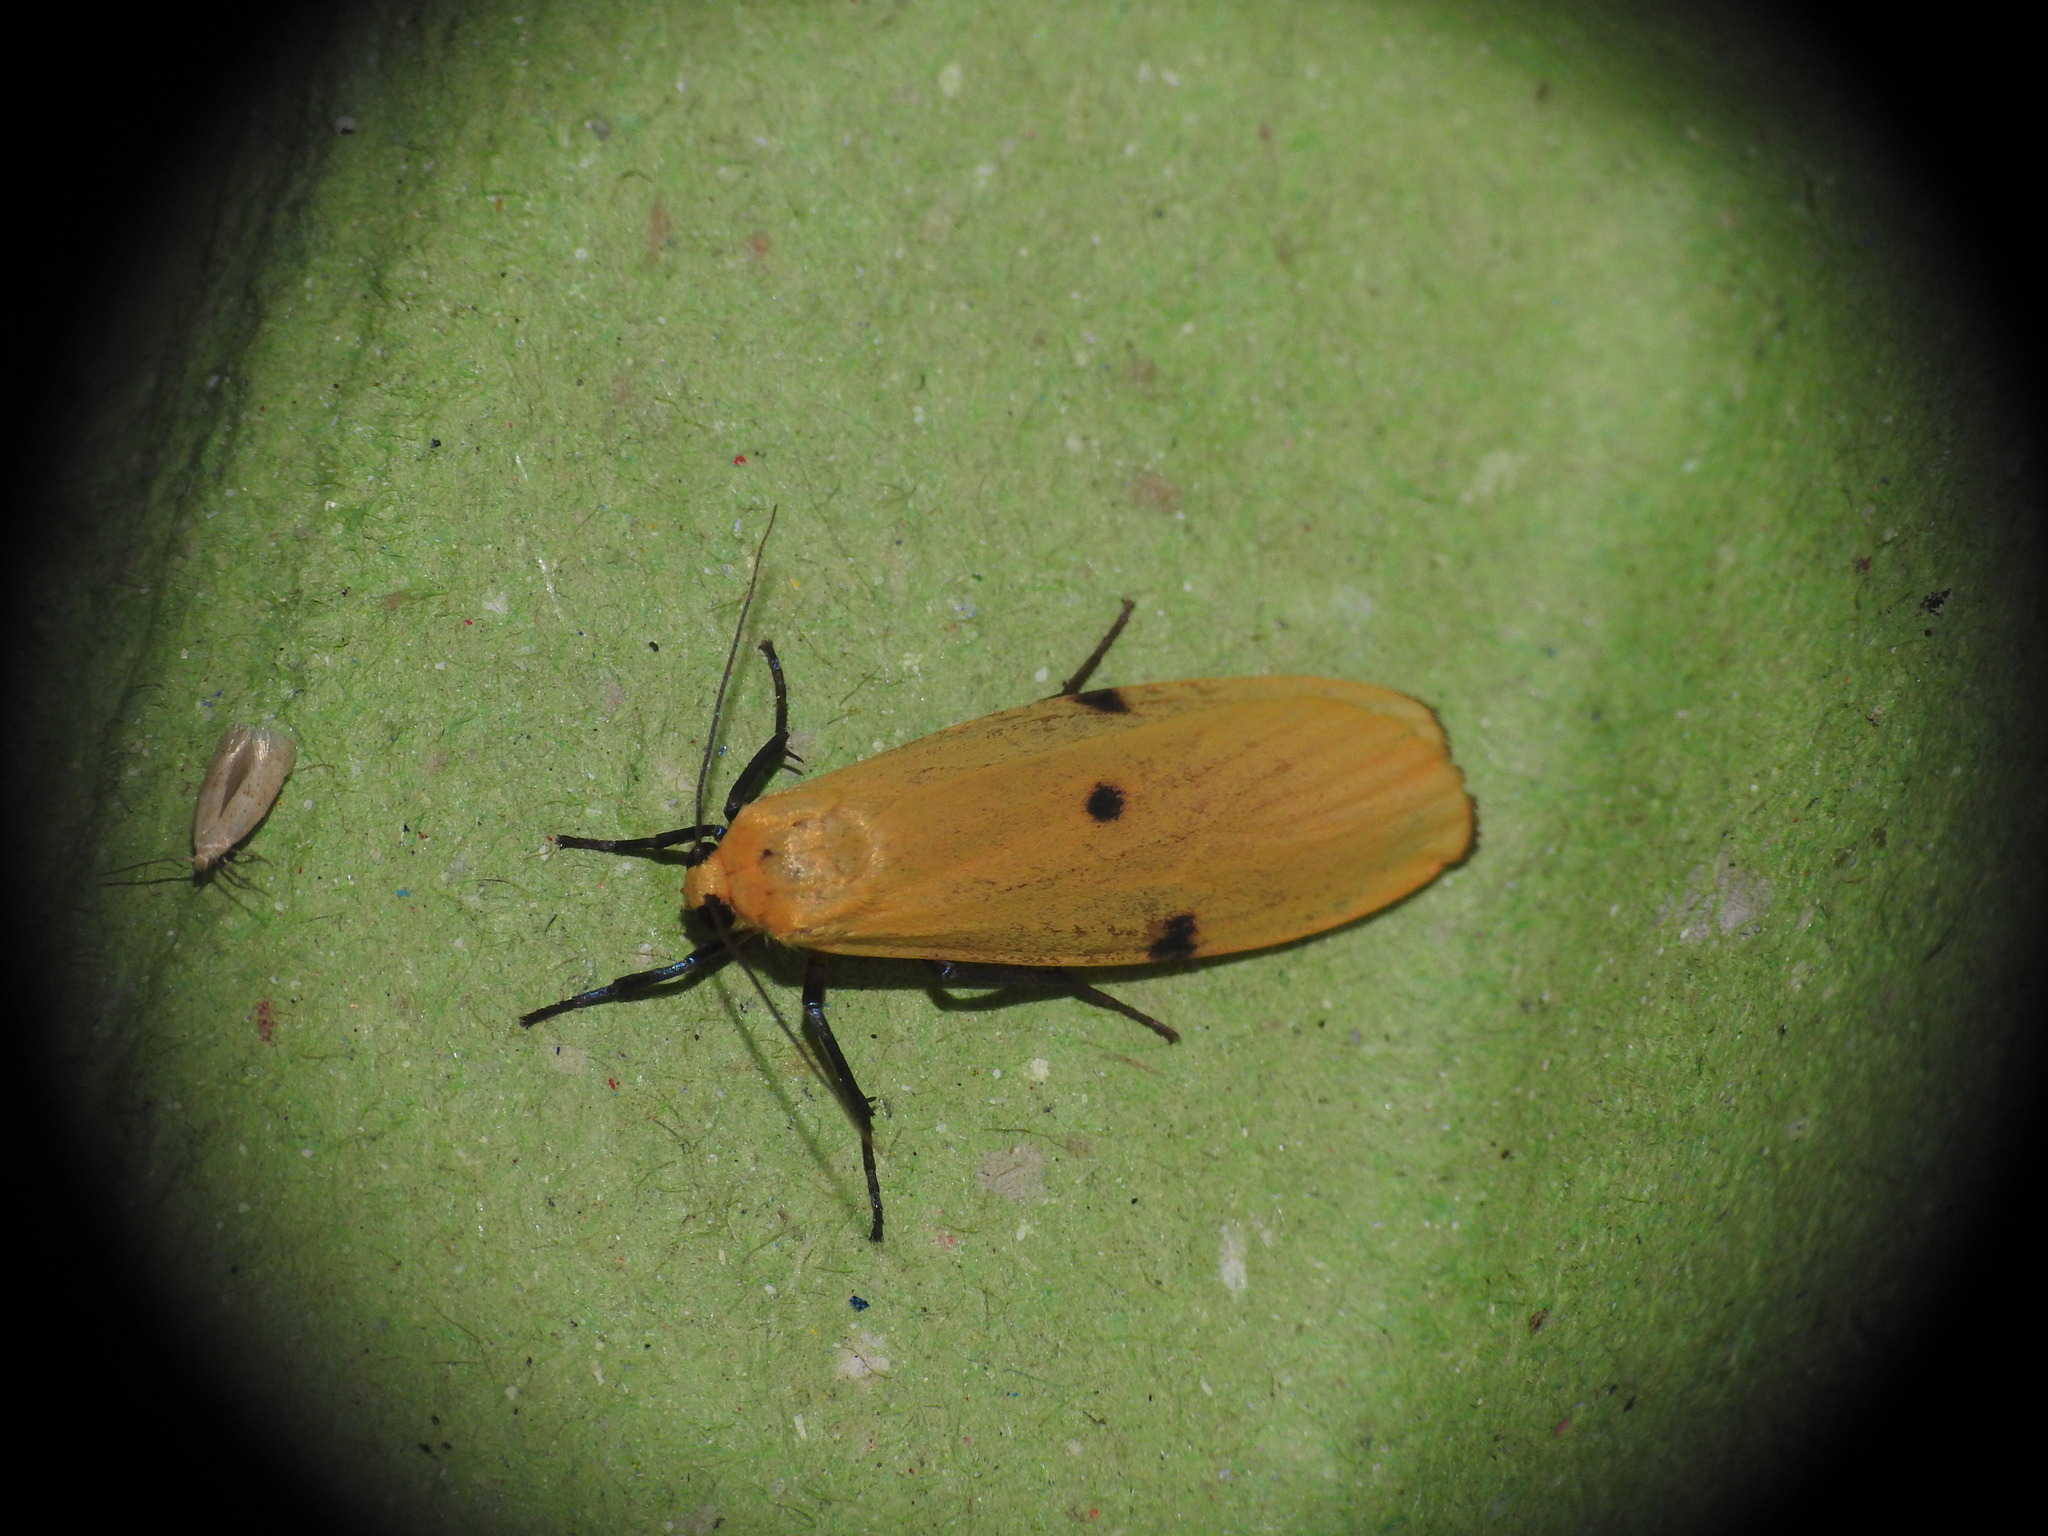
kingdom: Animalia
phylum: Arthropoda
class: Insecta
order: Lepidoptera
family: Erebidae
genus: Lithosia
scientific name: Lithosia quadra
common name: Four-spotted footman
